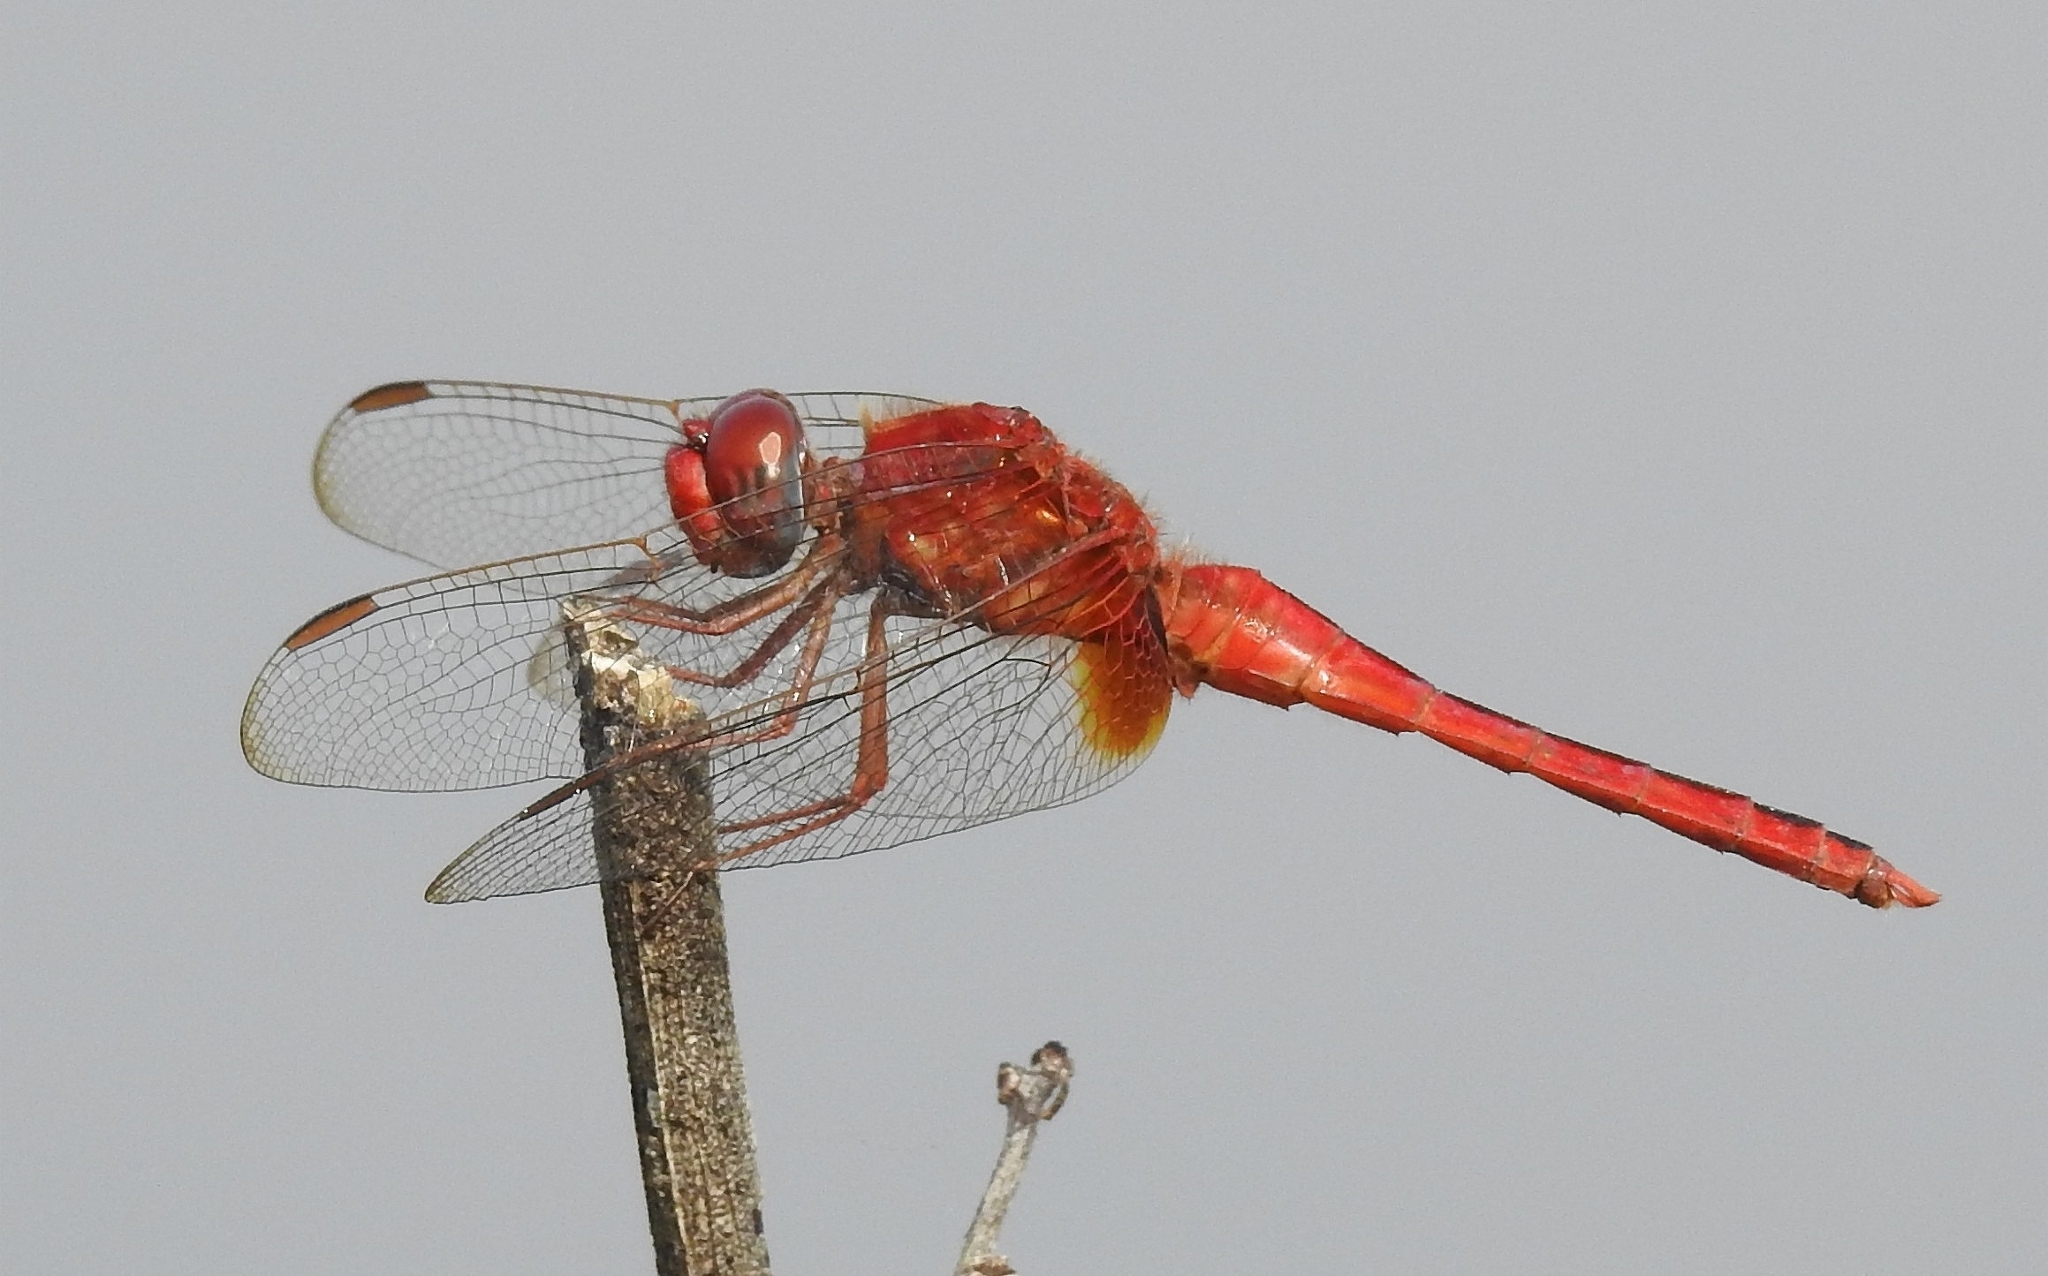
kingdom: Animalia
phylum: Arthropoda
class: Insecta
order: Odonata
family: Libellulidae
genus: Crocothemis
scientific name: Crocothemis servilia
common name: Scarlet skimmer
